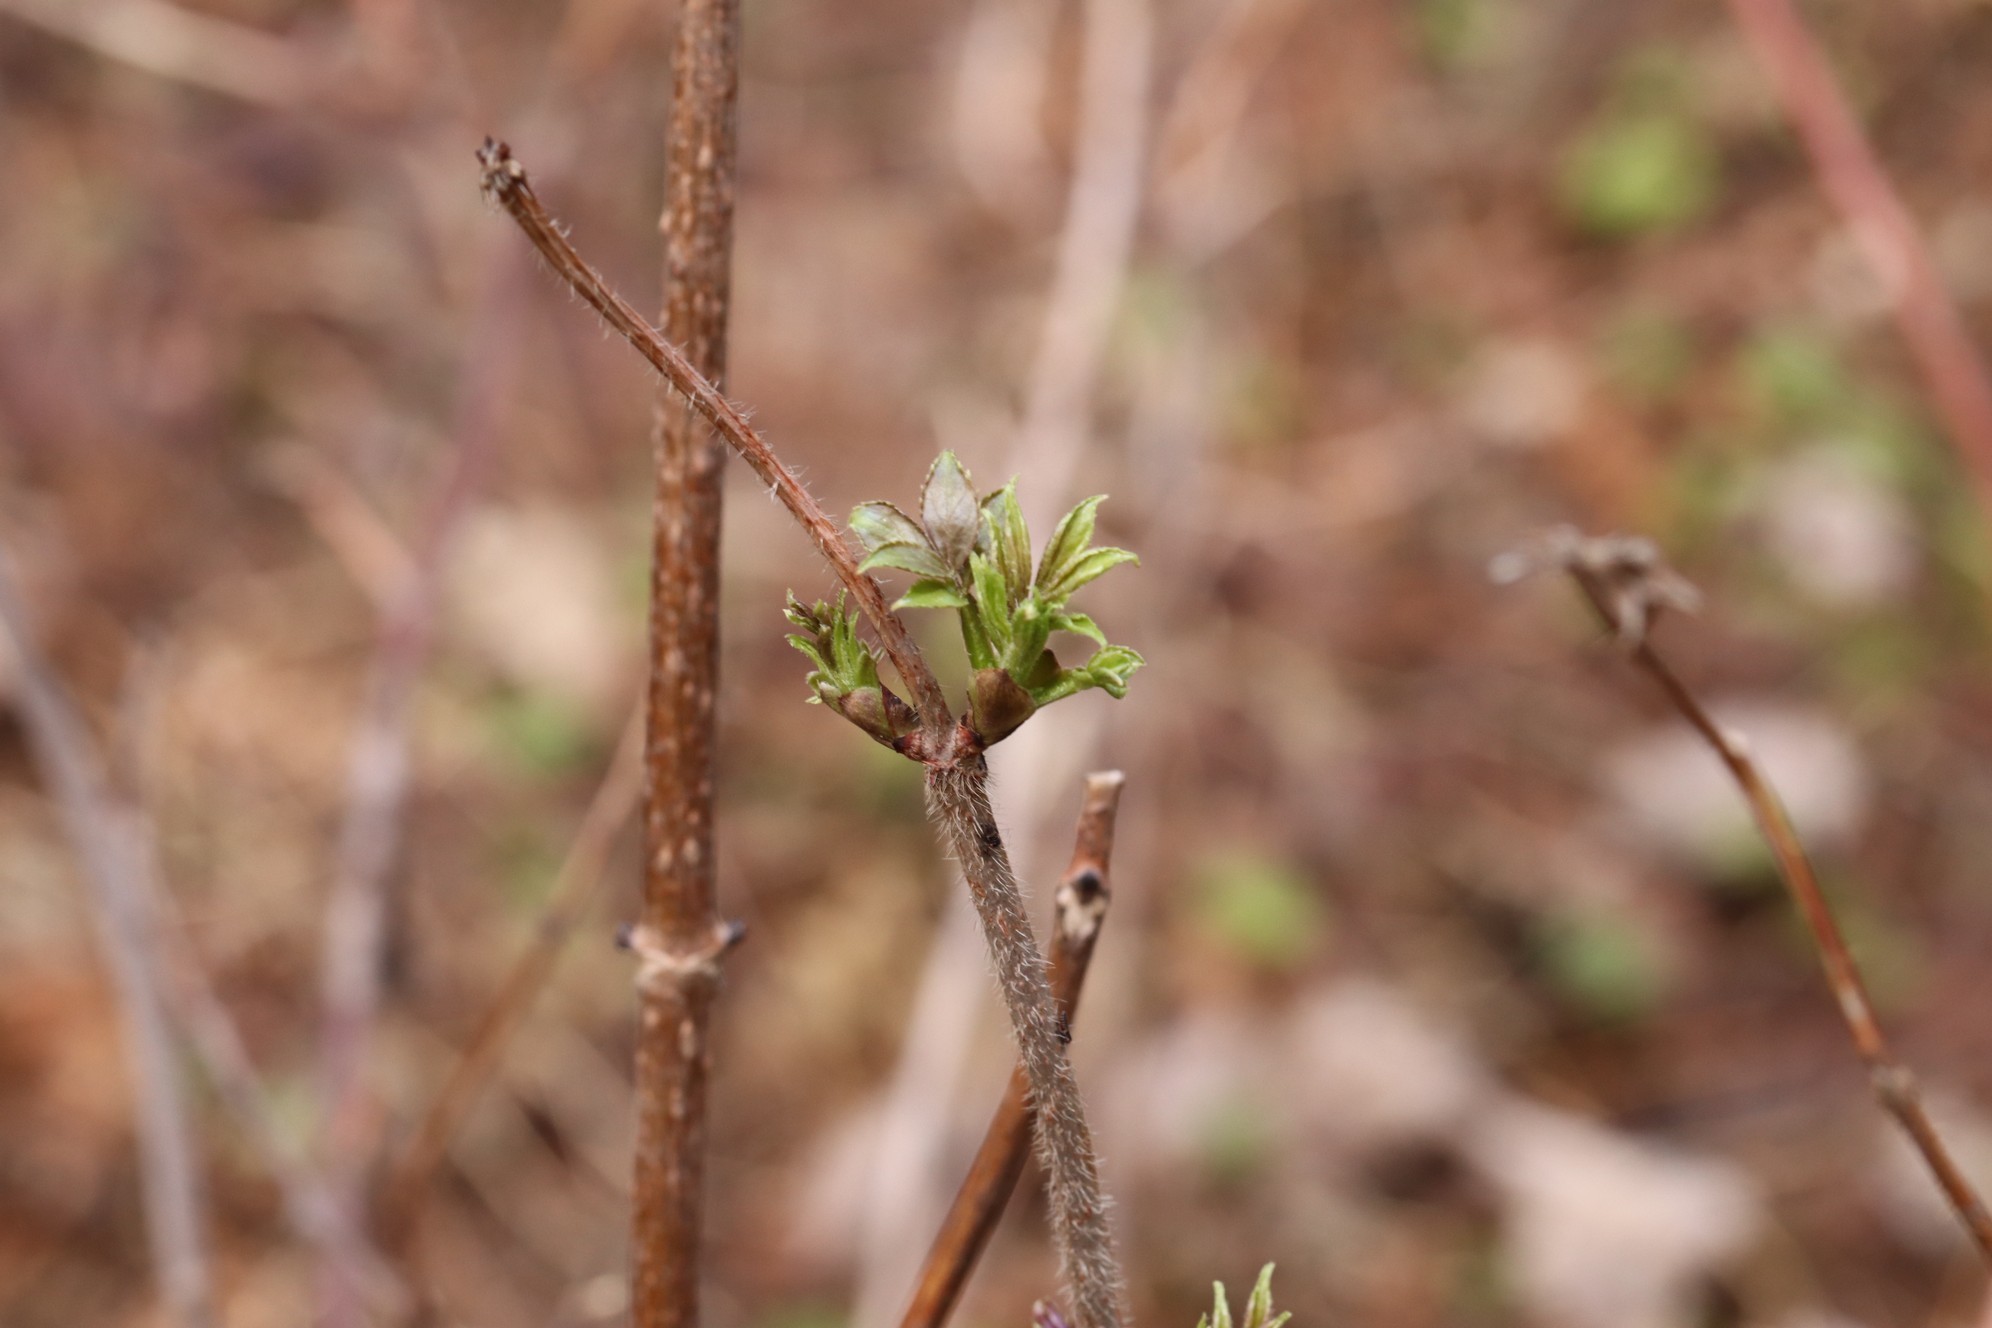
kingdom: Plantae
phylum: Tracheophyta
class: Magnoliopsida
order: Dipsacales
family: Viburnaceae
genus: Sambucus
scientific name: Sambucus sibirica
